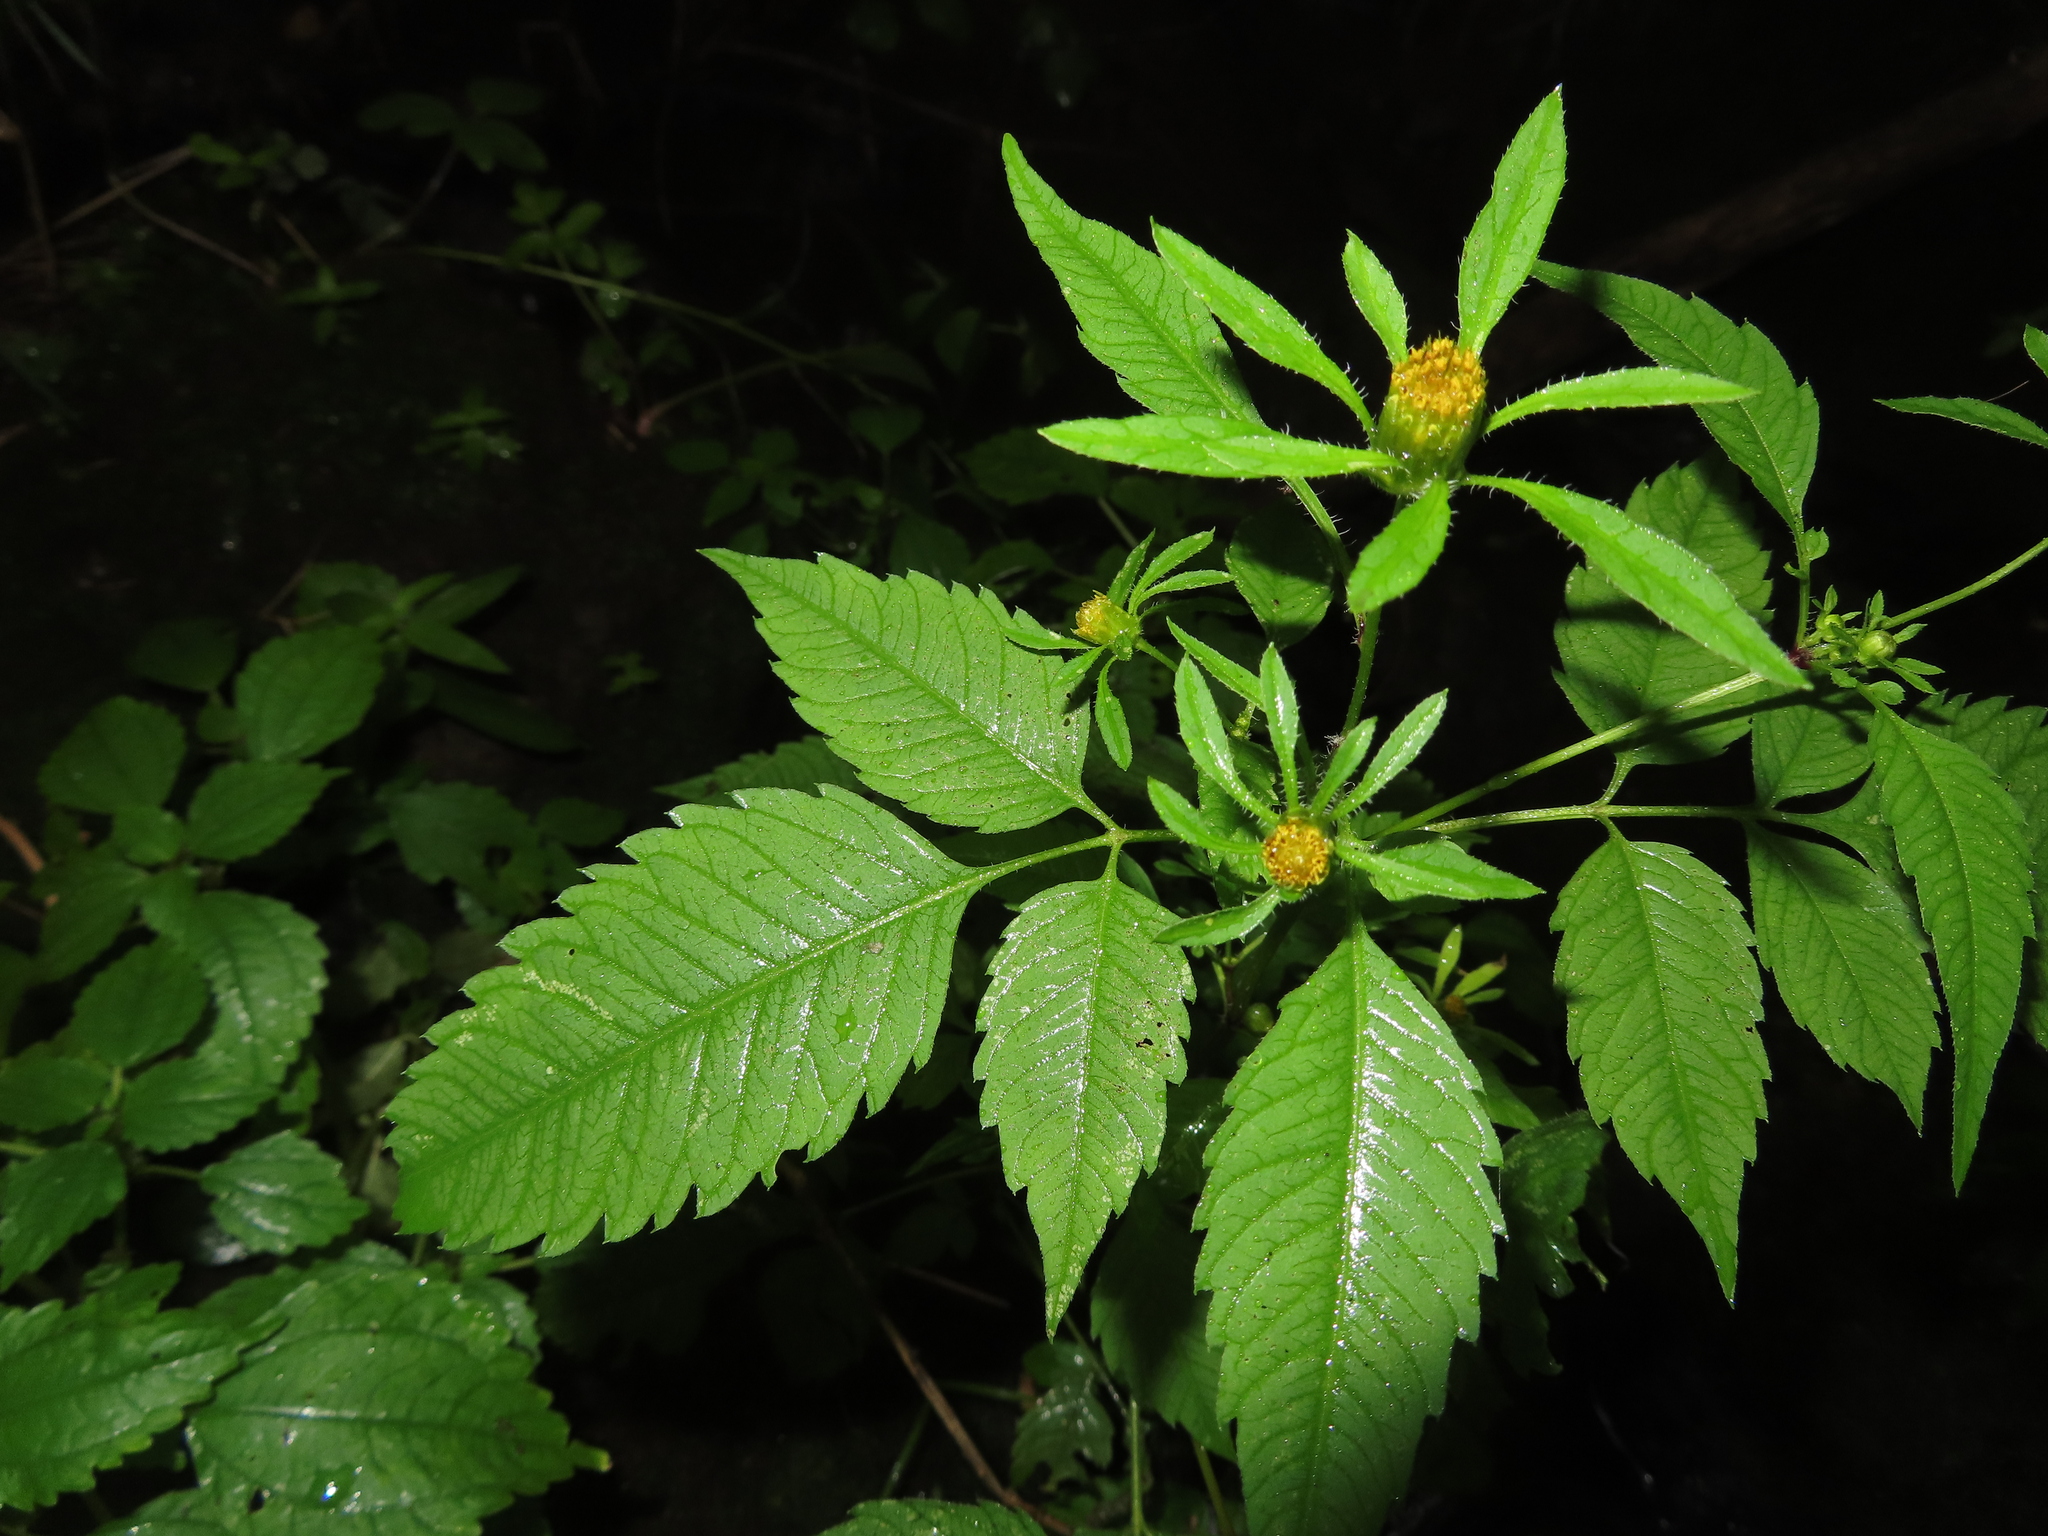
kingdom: Plantae
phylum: Tracheophyta
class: Magnoliopsida
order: Asterales
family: Asteraceae
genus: Bidens
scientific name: Bidens frondosa
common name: Beggarticks
